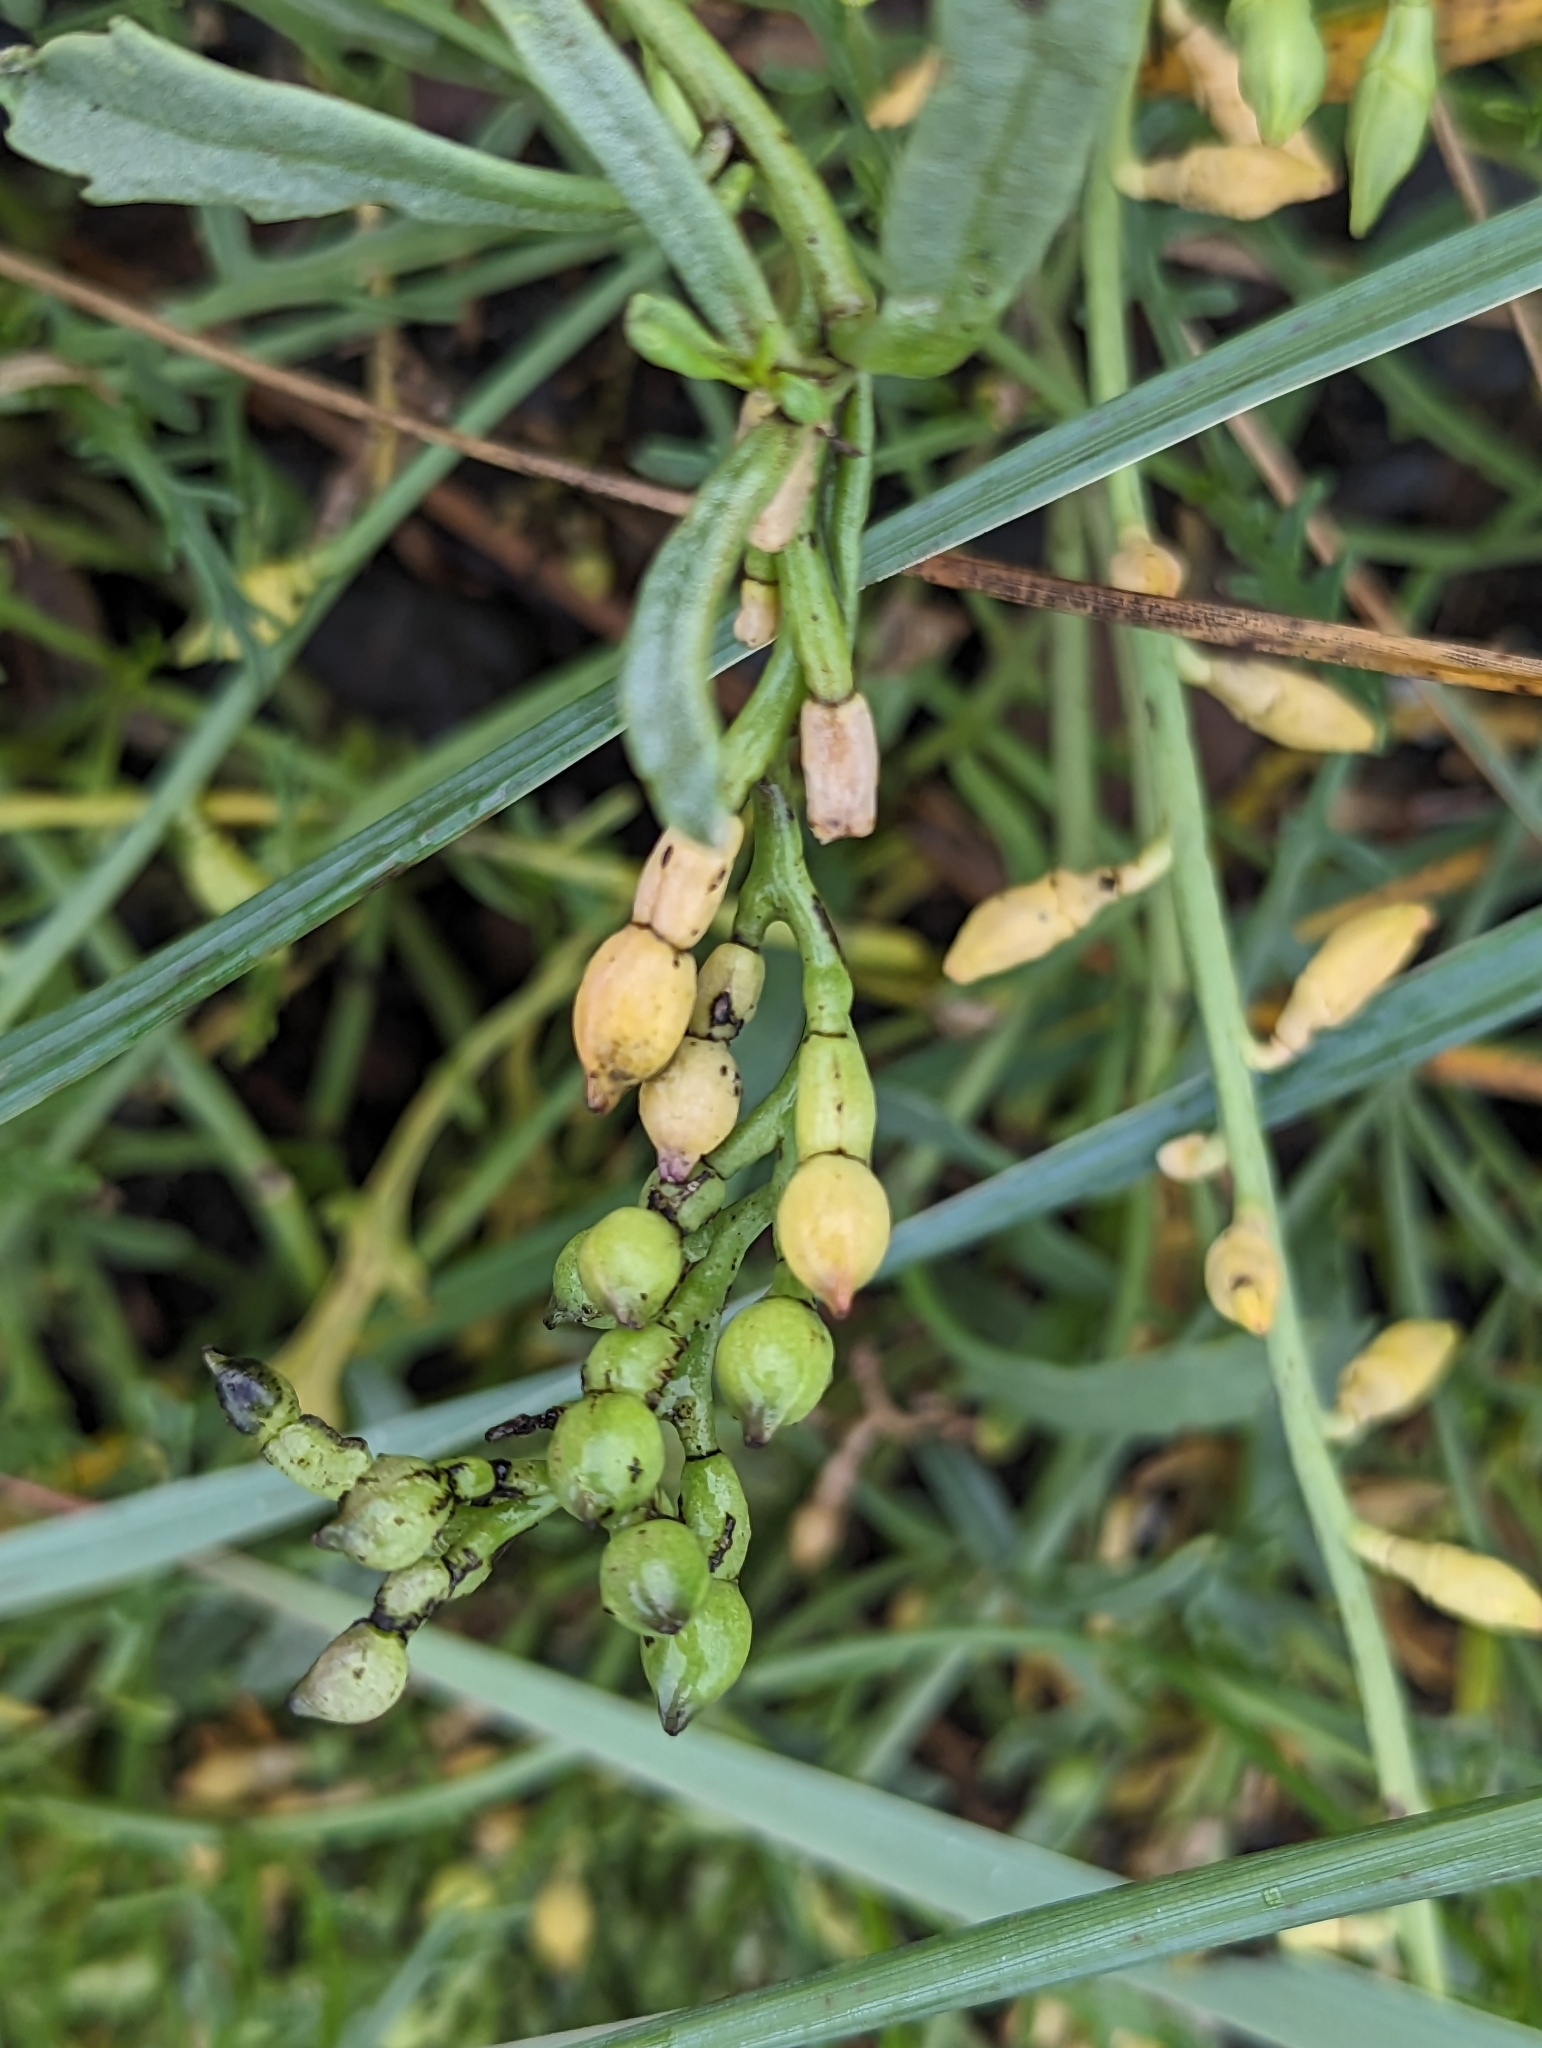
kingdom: Plantae
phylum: Tracheophyta
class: Magnoliopsida
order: Brassicales
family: Brassicaceae
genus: Cakile
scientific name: Cakile edentula
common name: American sea rocket
